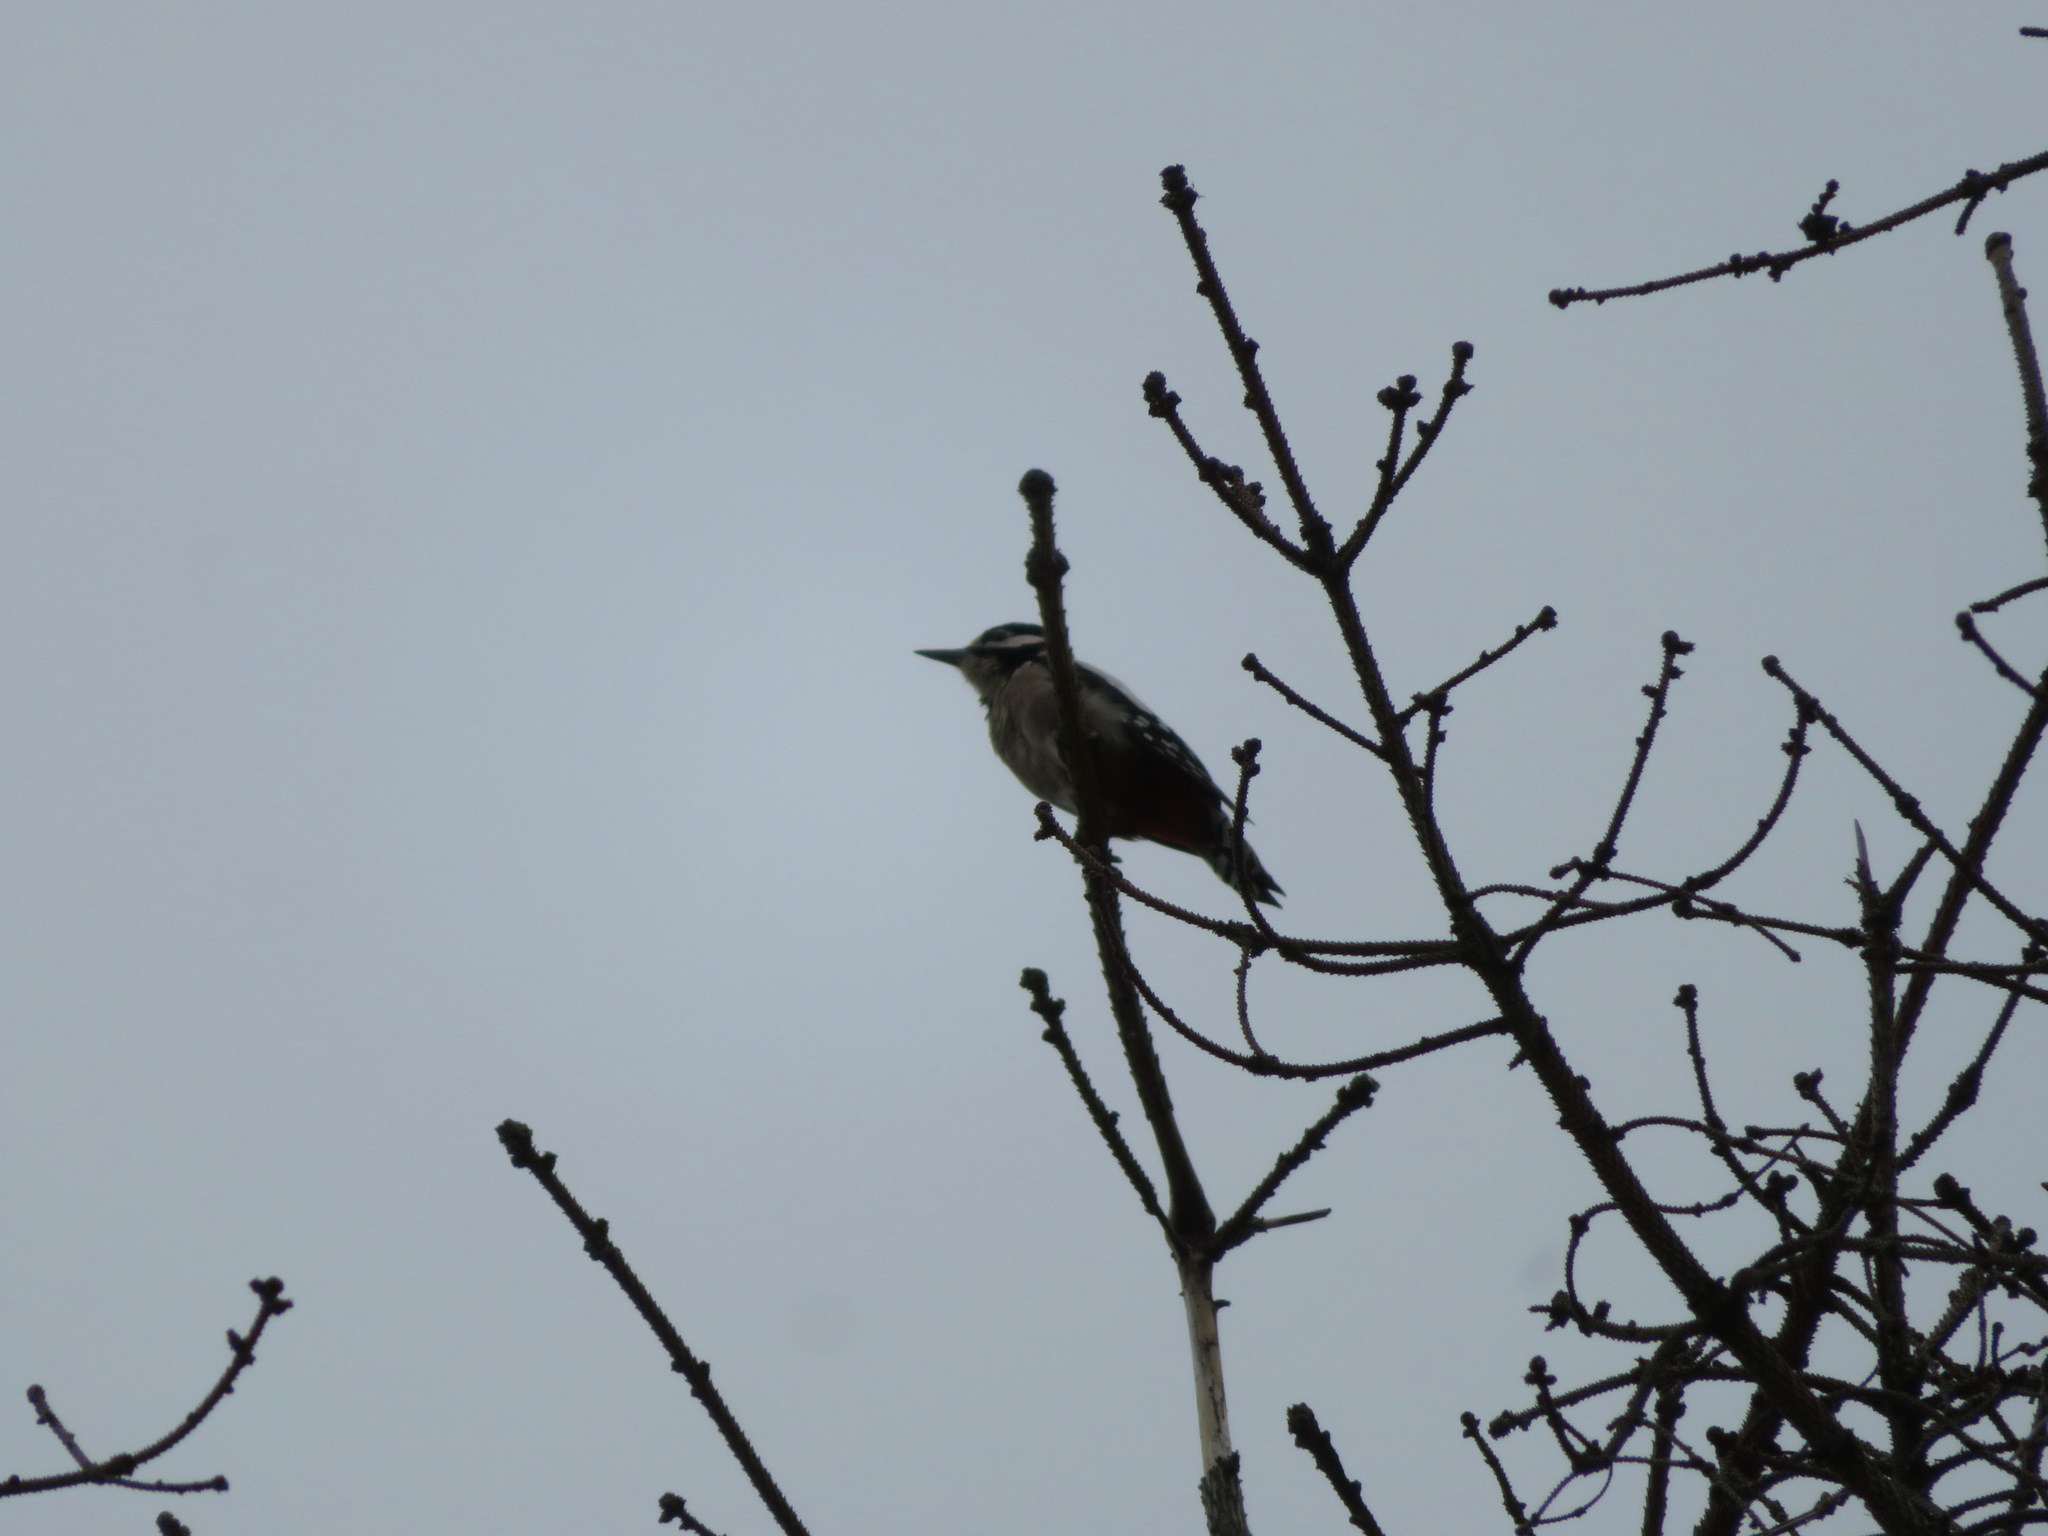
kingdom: Animalia
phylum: Chordata
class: Aves
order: Piciformes
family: Picidae
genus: Dendrocopos
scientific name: Dendrocopos major
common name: Great spotted woodpecker
